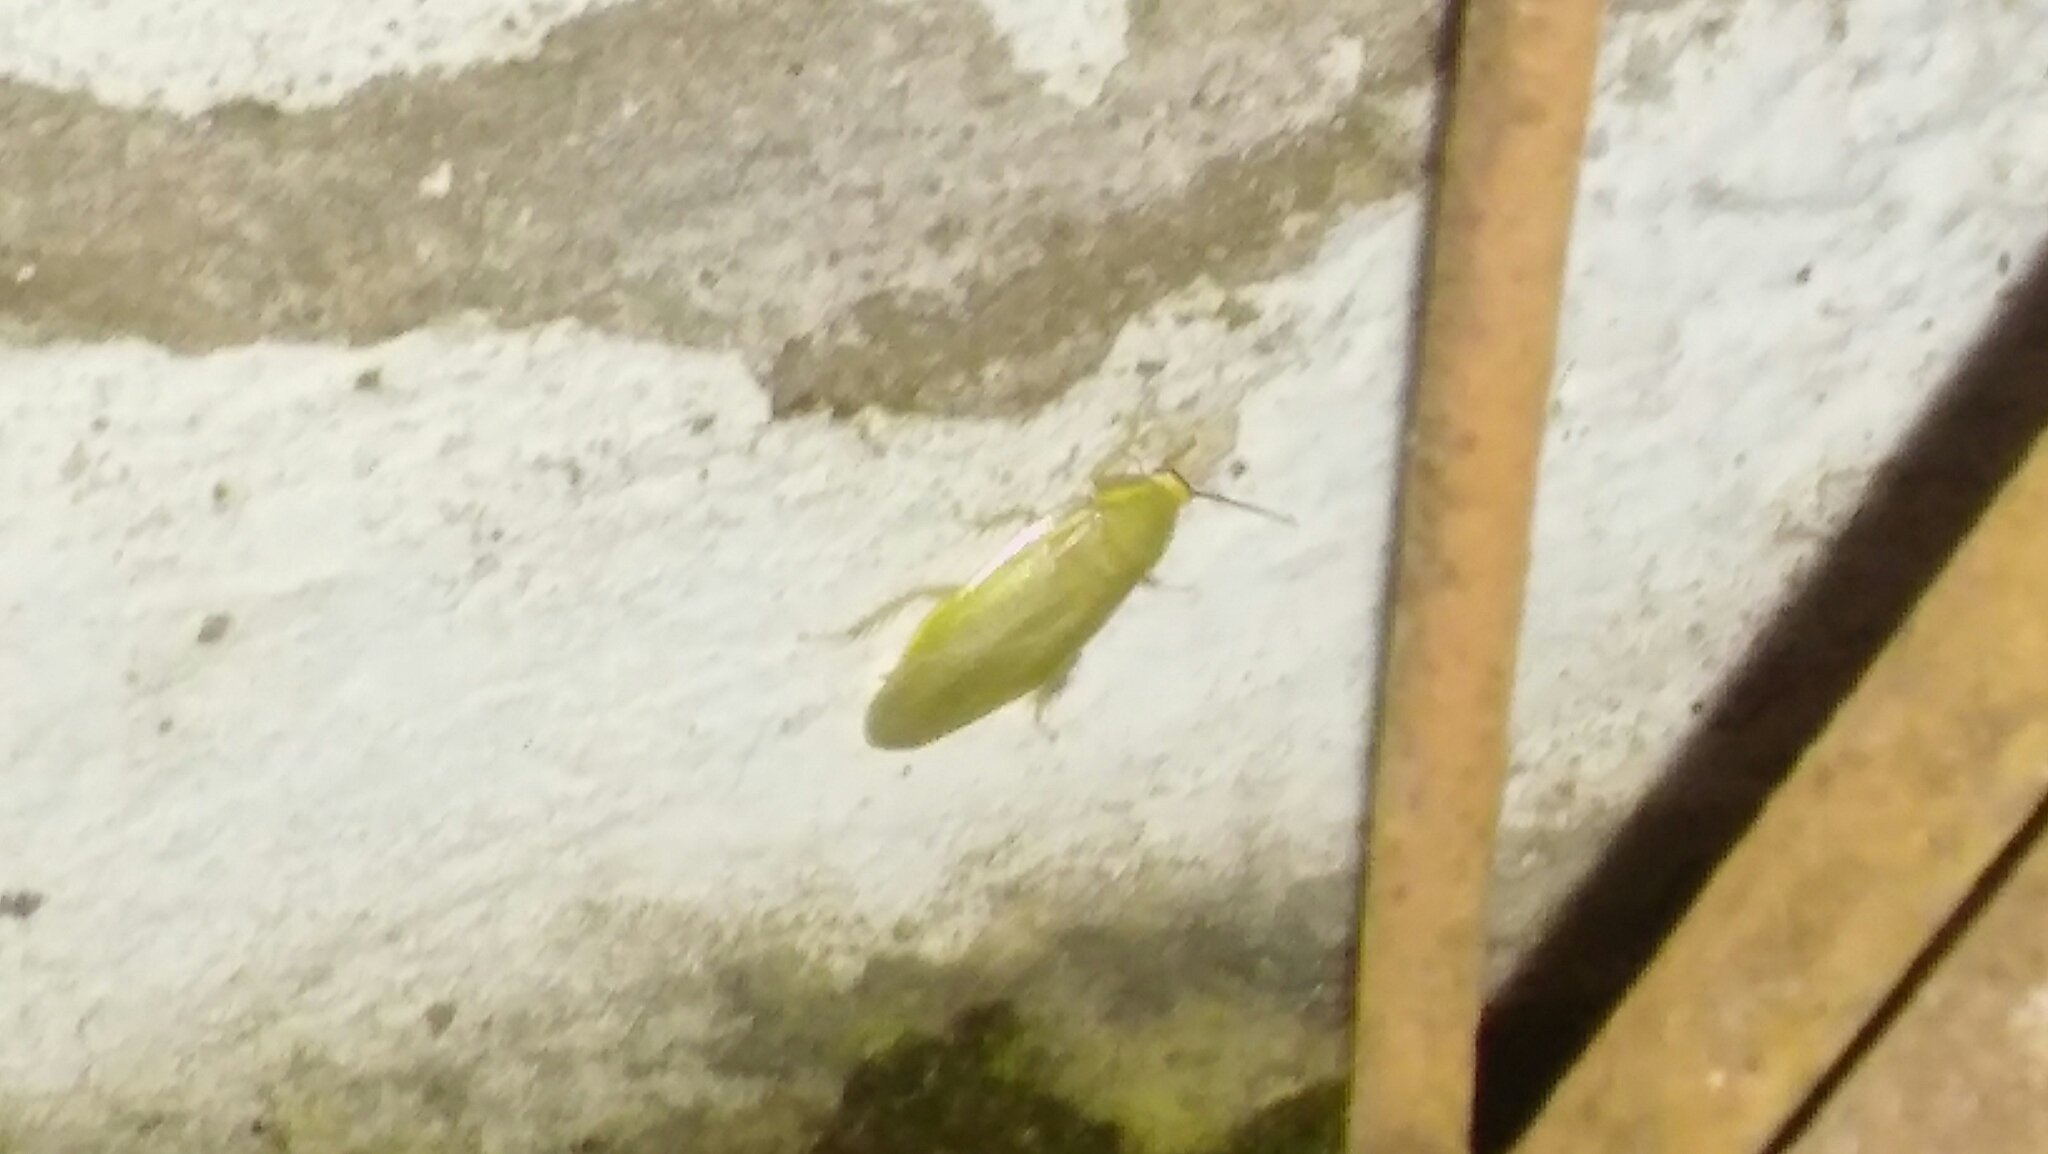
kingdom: Animalia
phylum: Arthropoda
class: Insecta
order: Blattodea
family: Blaberidae
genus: Panchlora
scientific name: Panchlora thalassina
